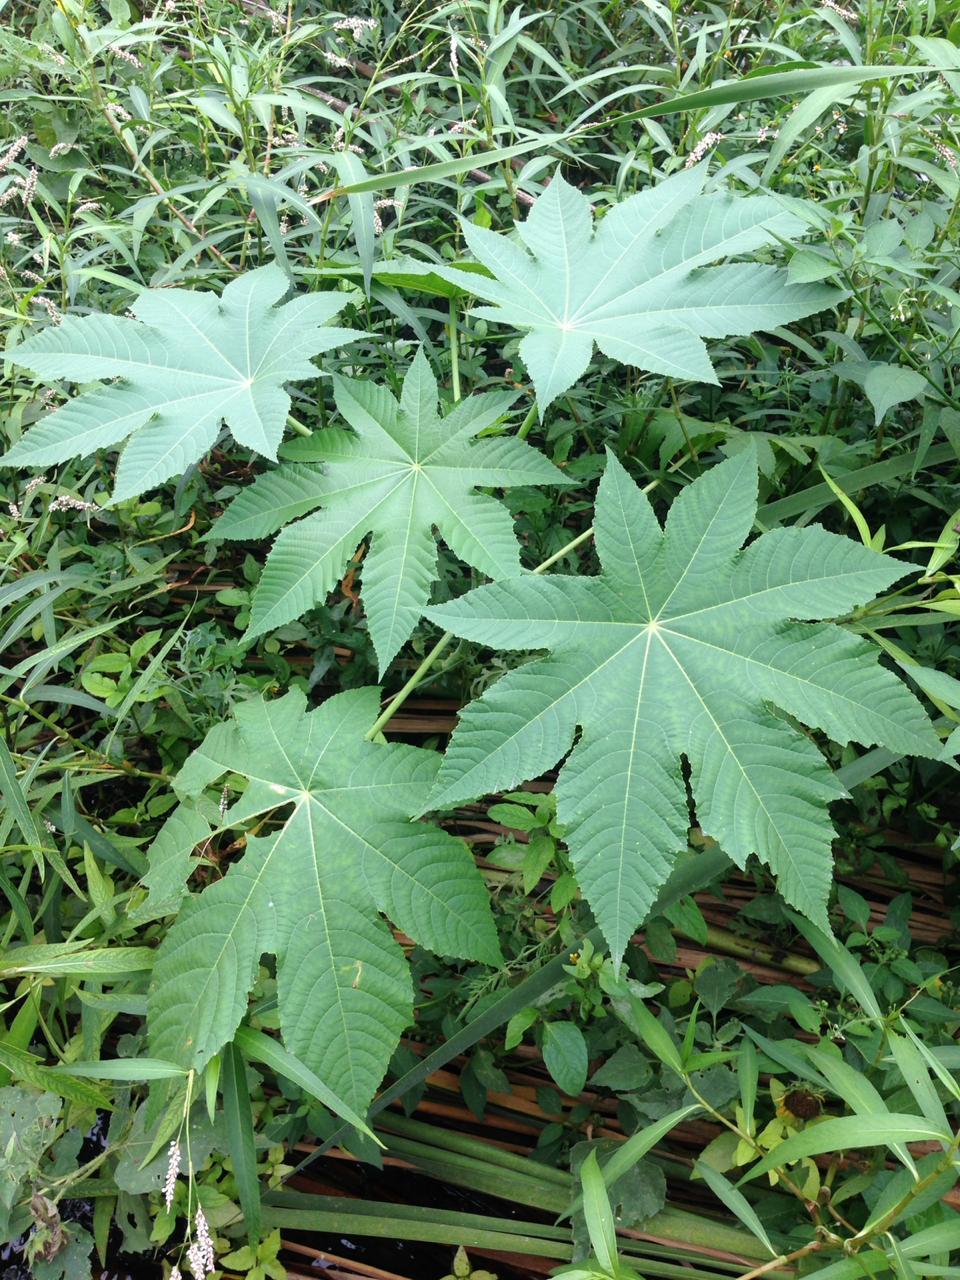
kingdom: Plantae
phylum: Tracheophyta
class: Magnoliopsida
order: Malpighiales
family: Euphorbiaceae
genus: Ricinus
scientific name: Ricinus communis
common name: Castor-oil-plant
